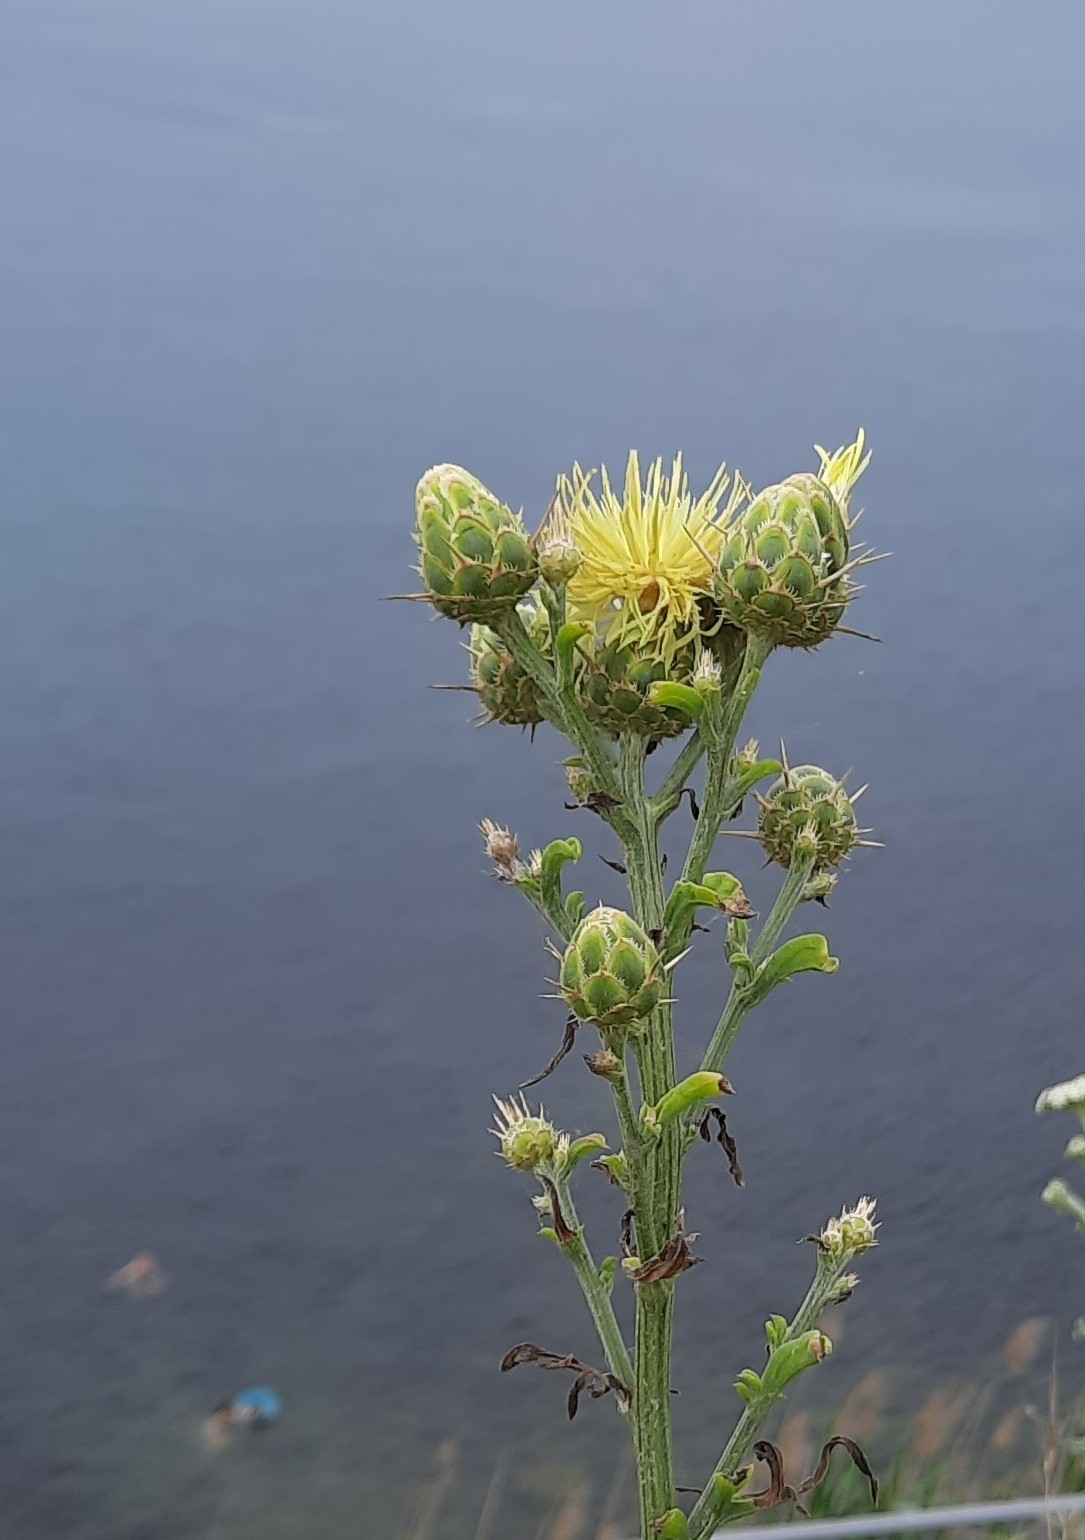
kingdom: Plantae
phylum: Tracheophyta
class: Magnoliopsida
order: Asterales
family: Asteraceae
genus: Centaurea
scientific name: Centaurea salonitana
